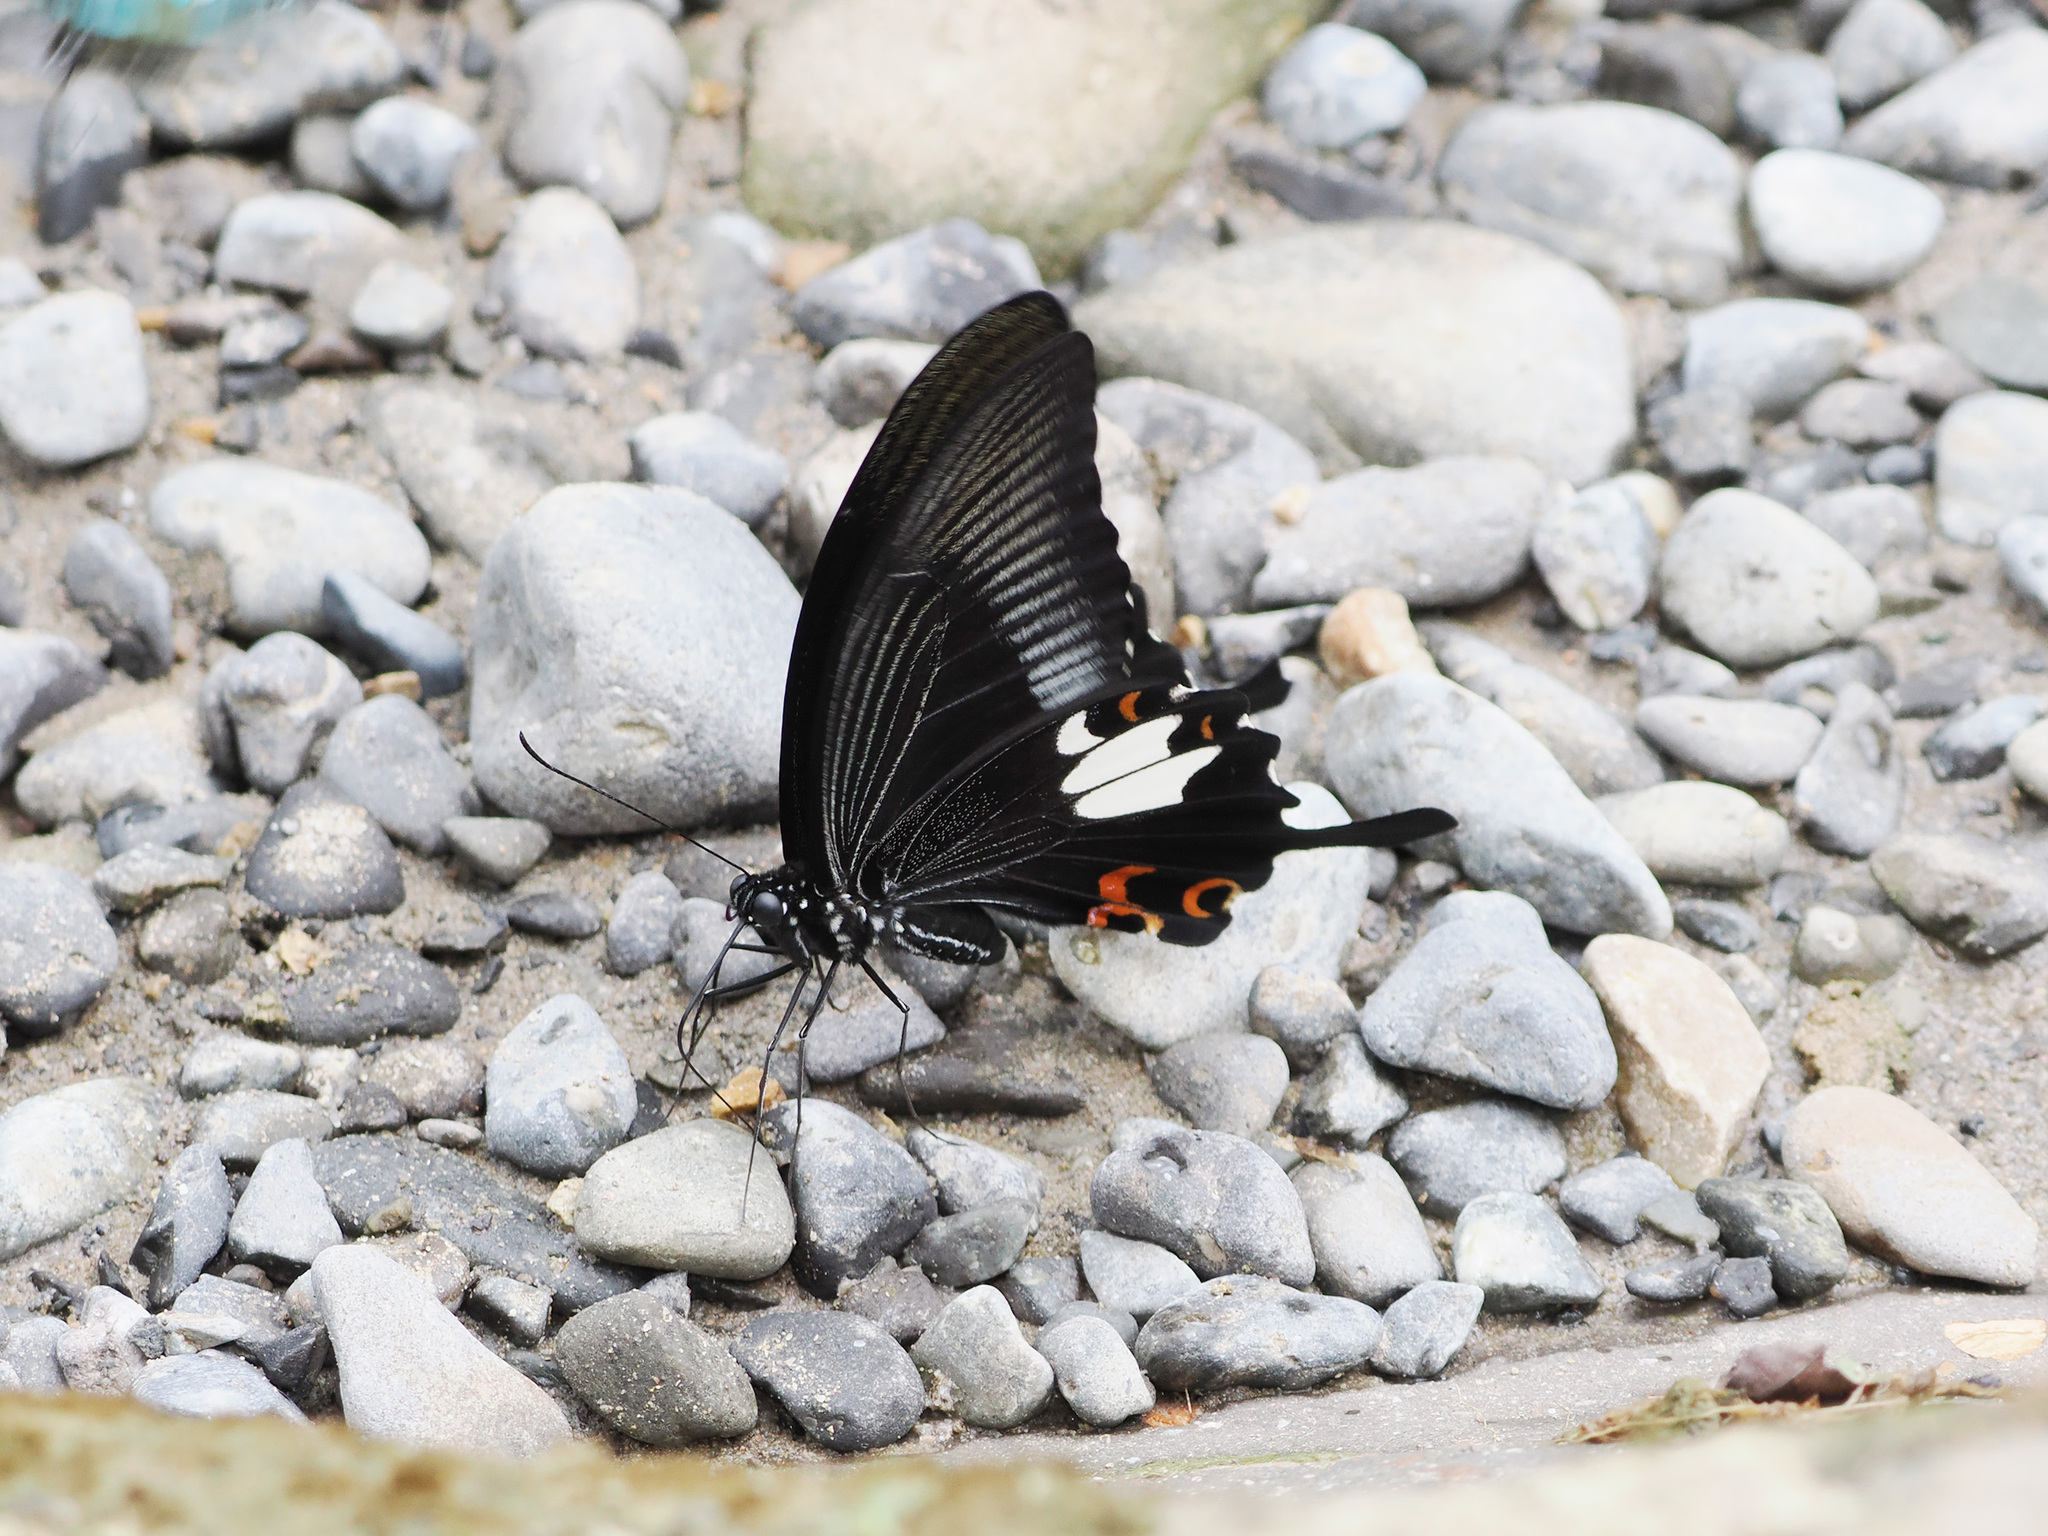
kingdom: Animalia
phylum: Arthropoda
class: Insecta
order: Lepidoptera
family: Papilionidae
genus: Papilio
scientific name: Papilio helenus
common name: Red helen
